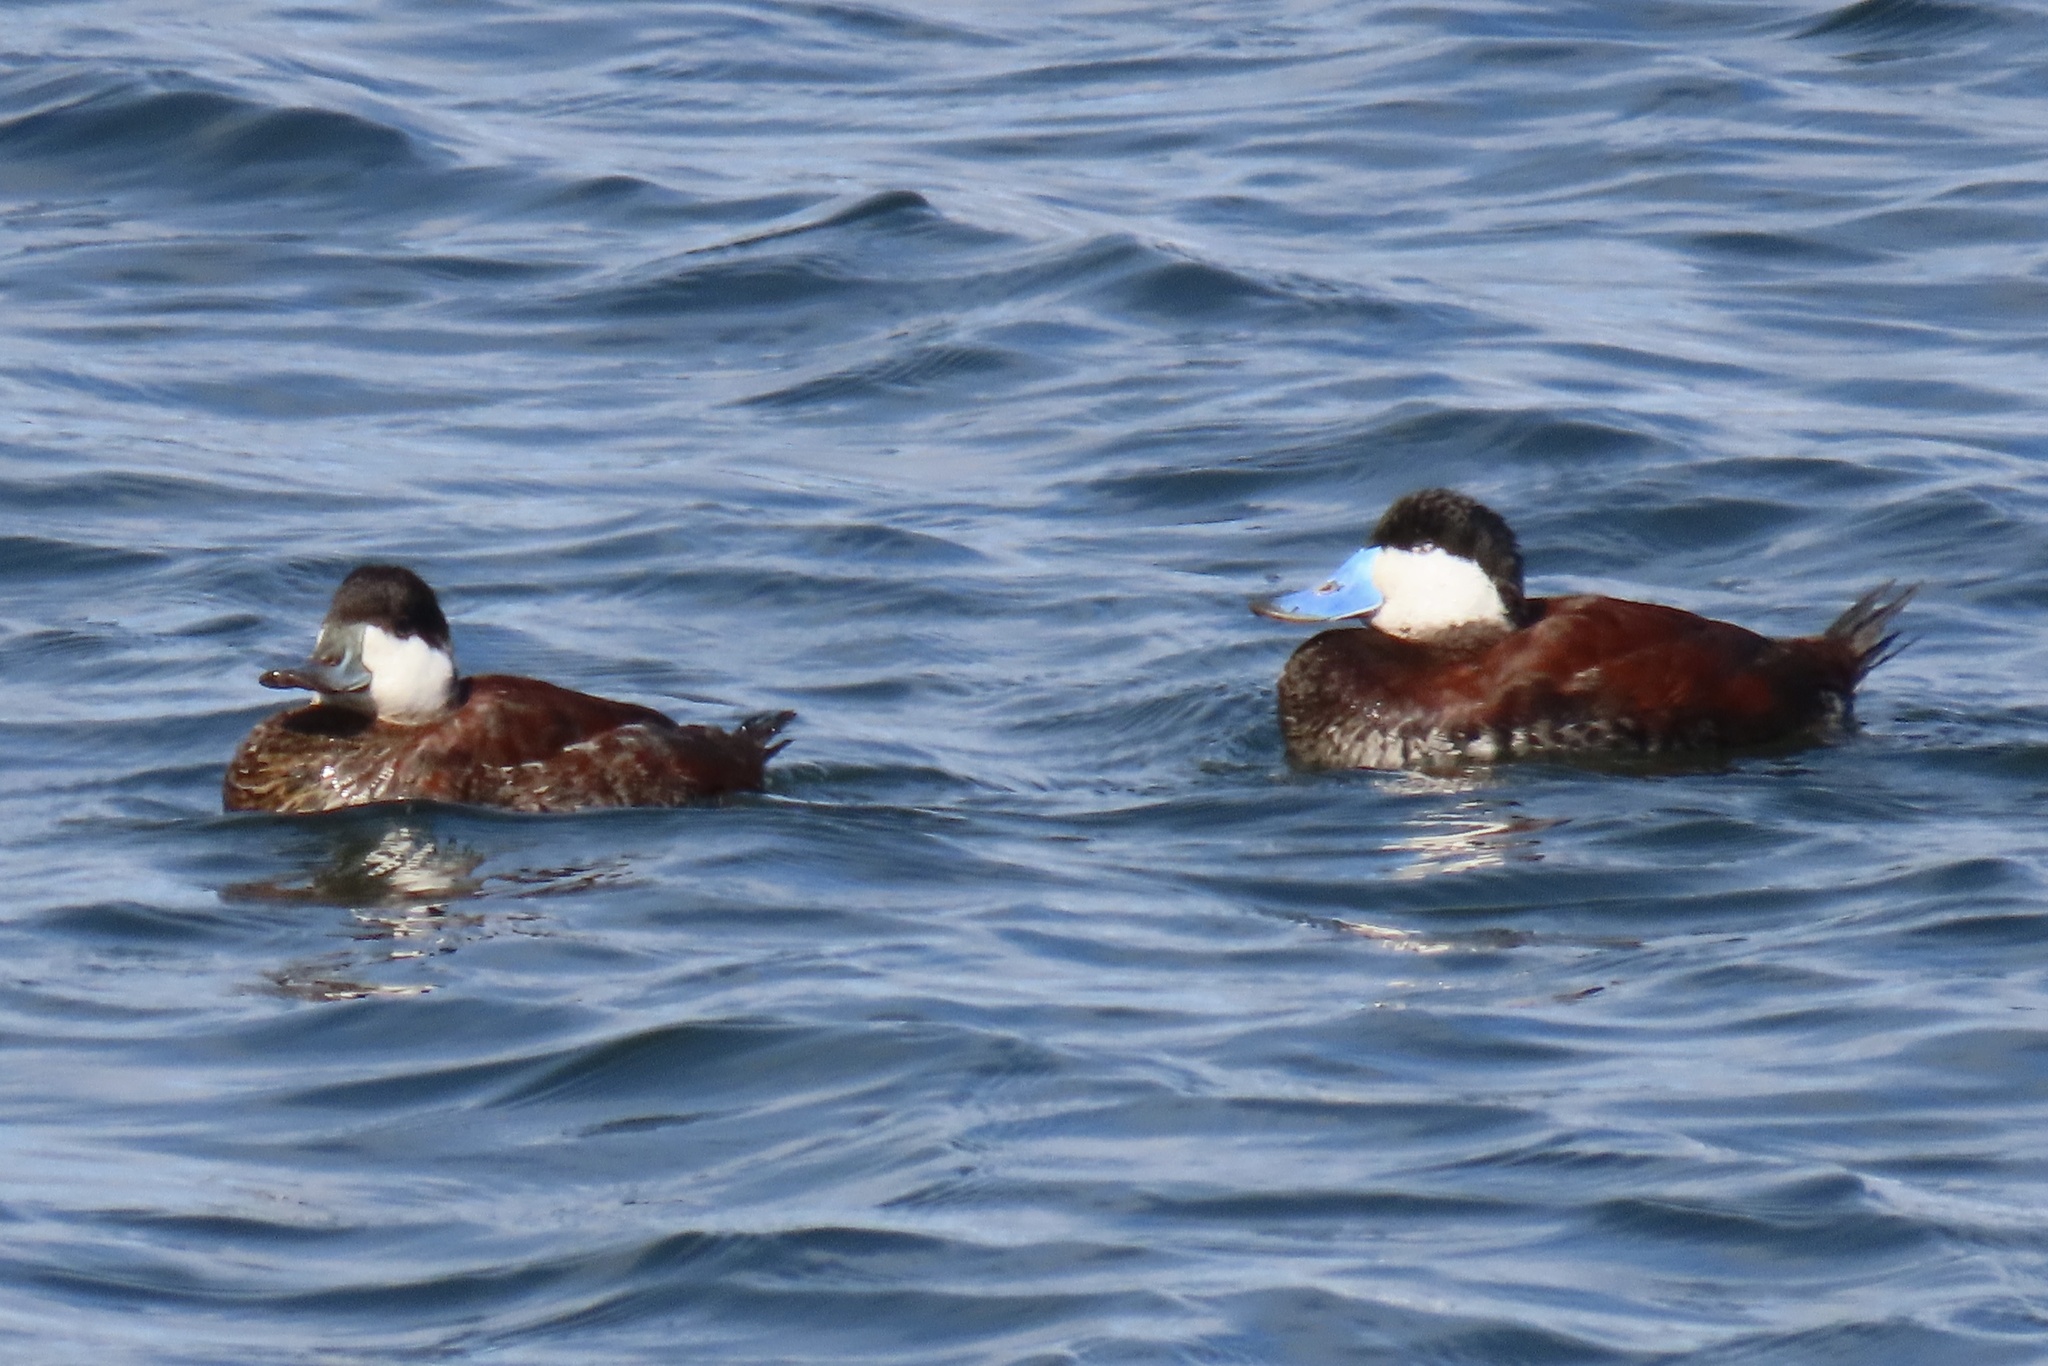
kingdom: Animalia
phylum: Chordata
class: Aves
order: Anseriformes
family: Anatidae
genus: Oxyura
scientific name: Oxyura jamaicensis
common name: Ruddy duck
